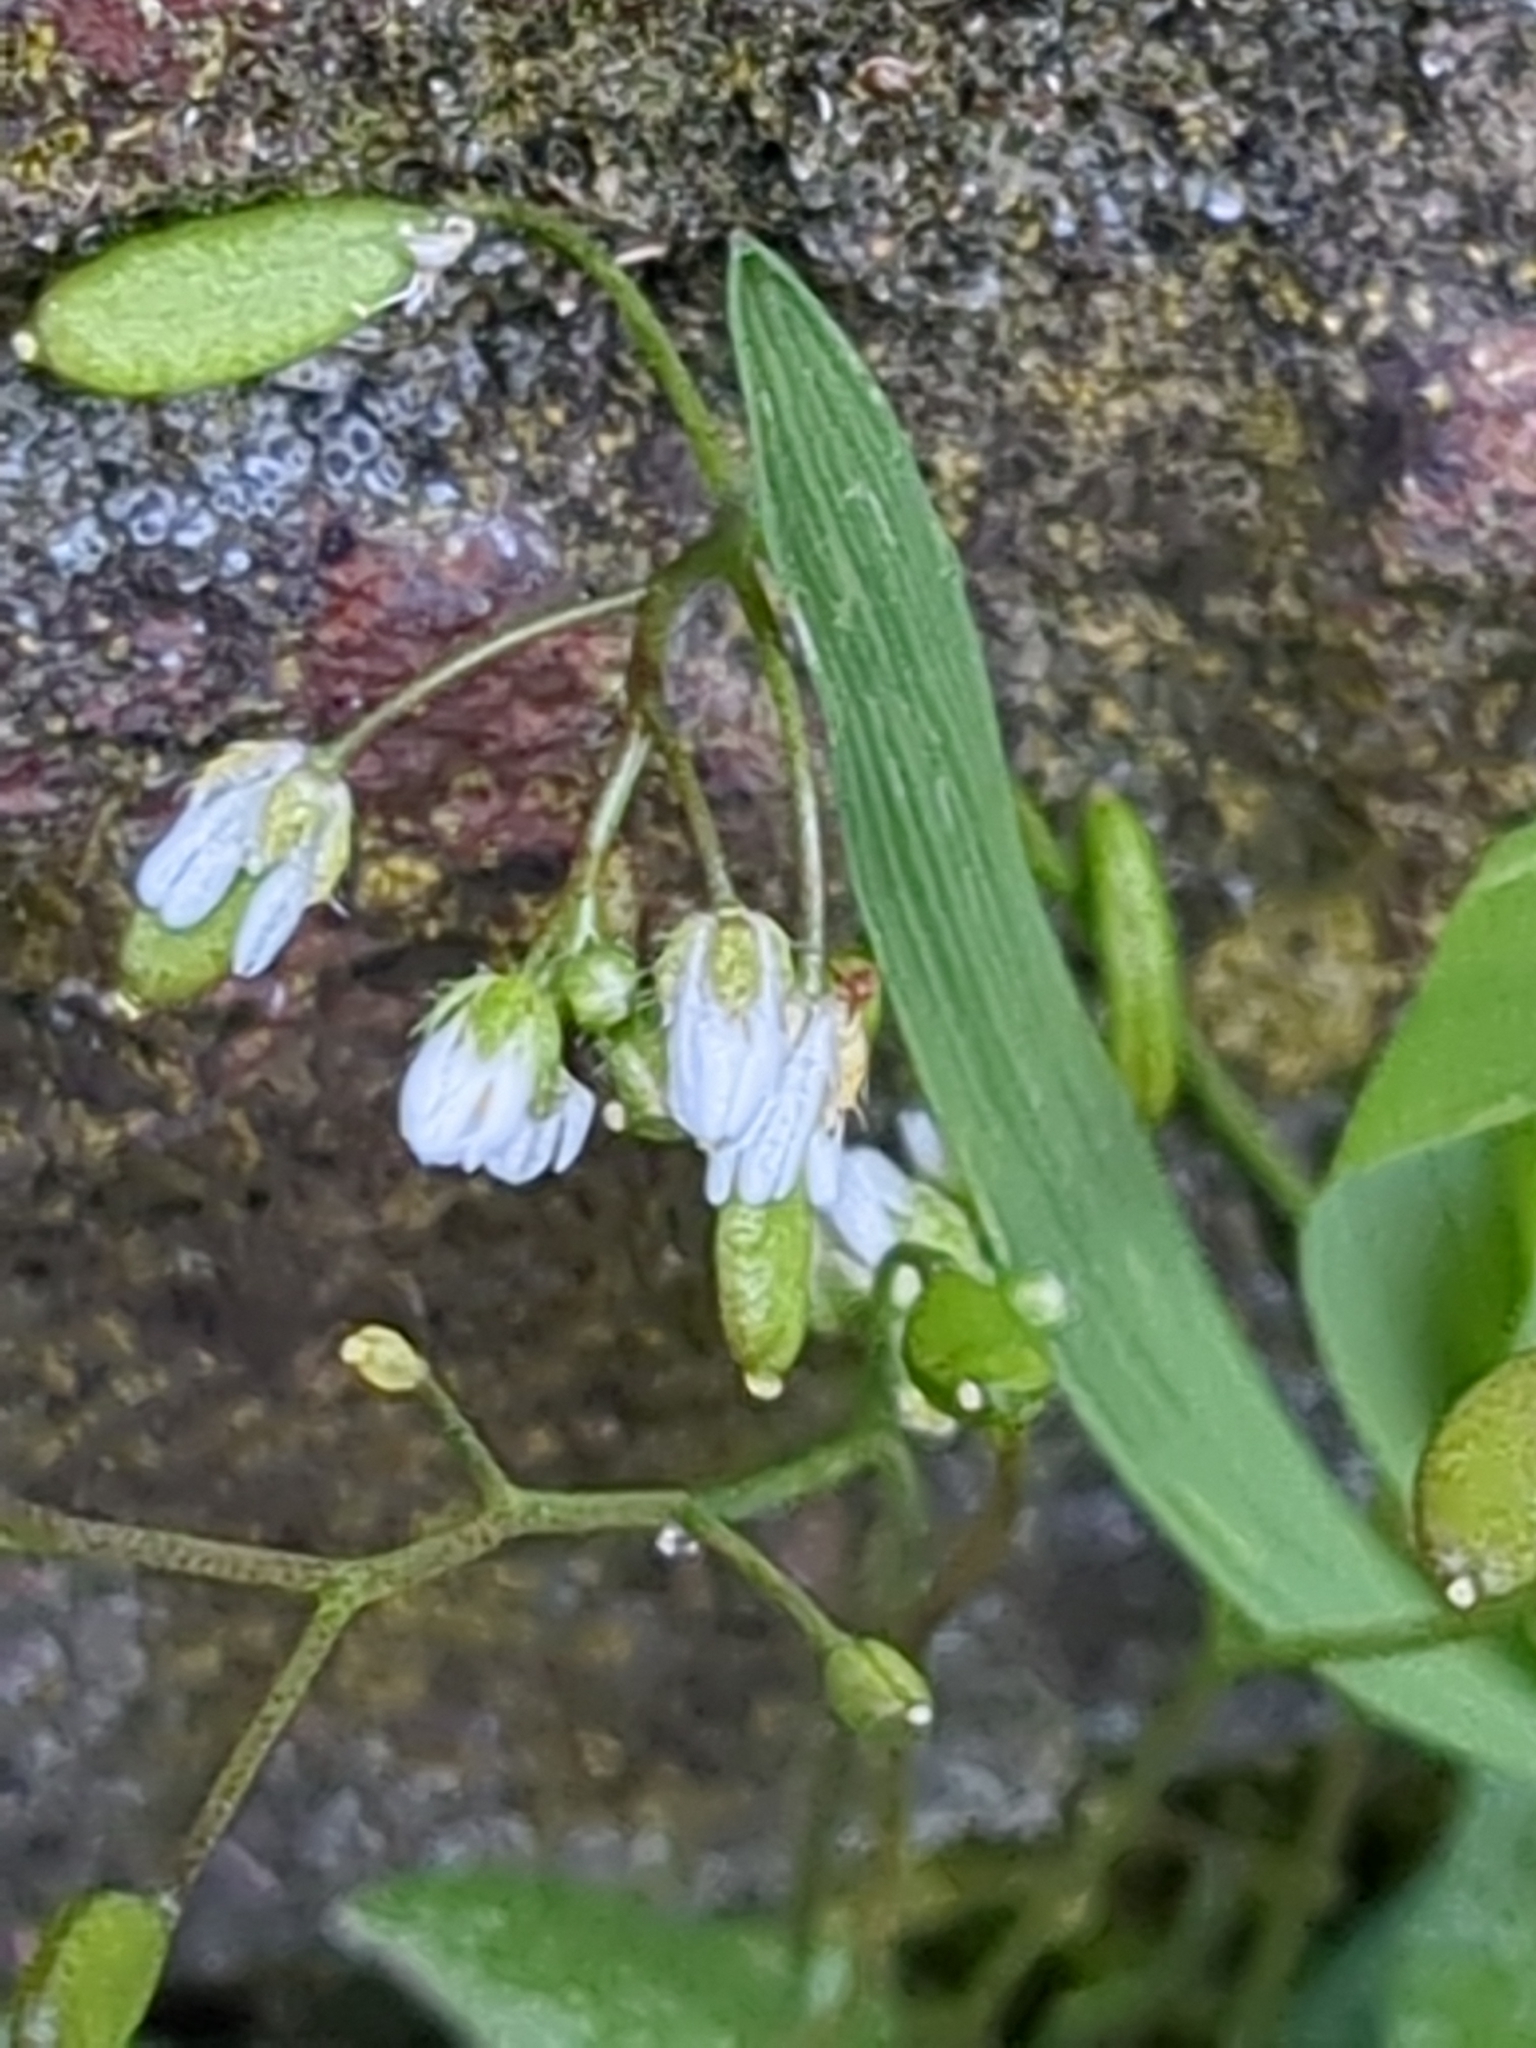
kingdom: Plantae
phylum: Tracheophyta
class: Magnoliopsida
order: Brassicales
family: Brassicaceae
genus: Draba
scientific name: Draba verna
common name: Spring draba
